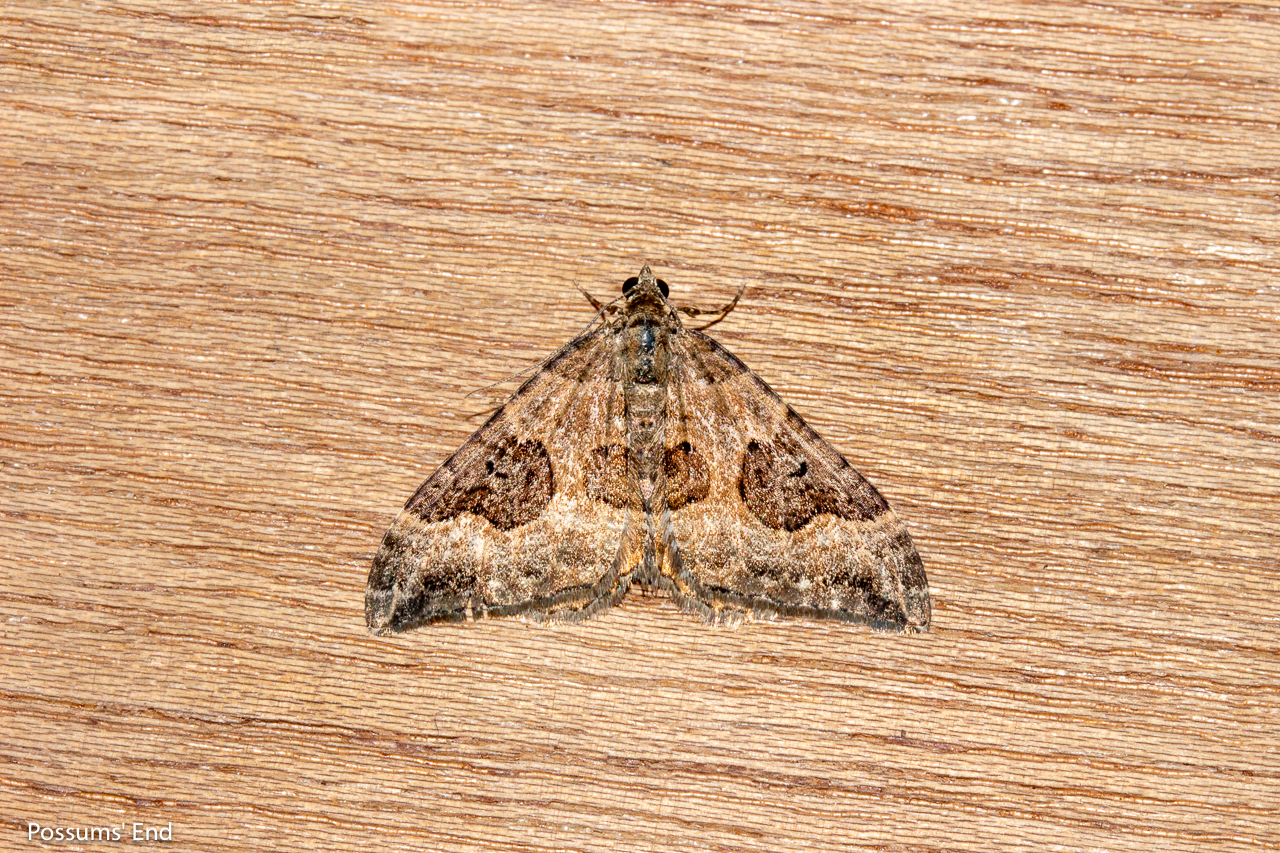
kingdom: Animalia
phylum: Arthropoda
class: Insecta
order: Lepidoptera
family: Geometridae
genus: Hydriomena
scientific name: Hydriomena deltoidata
